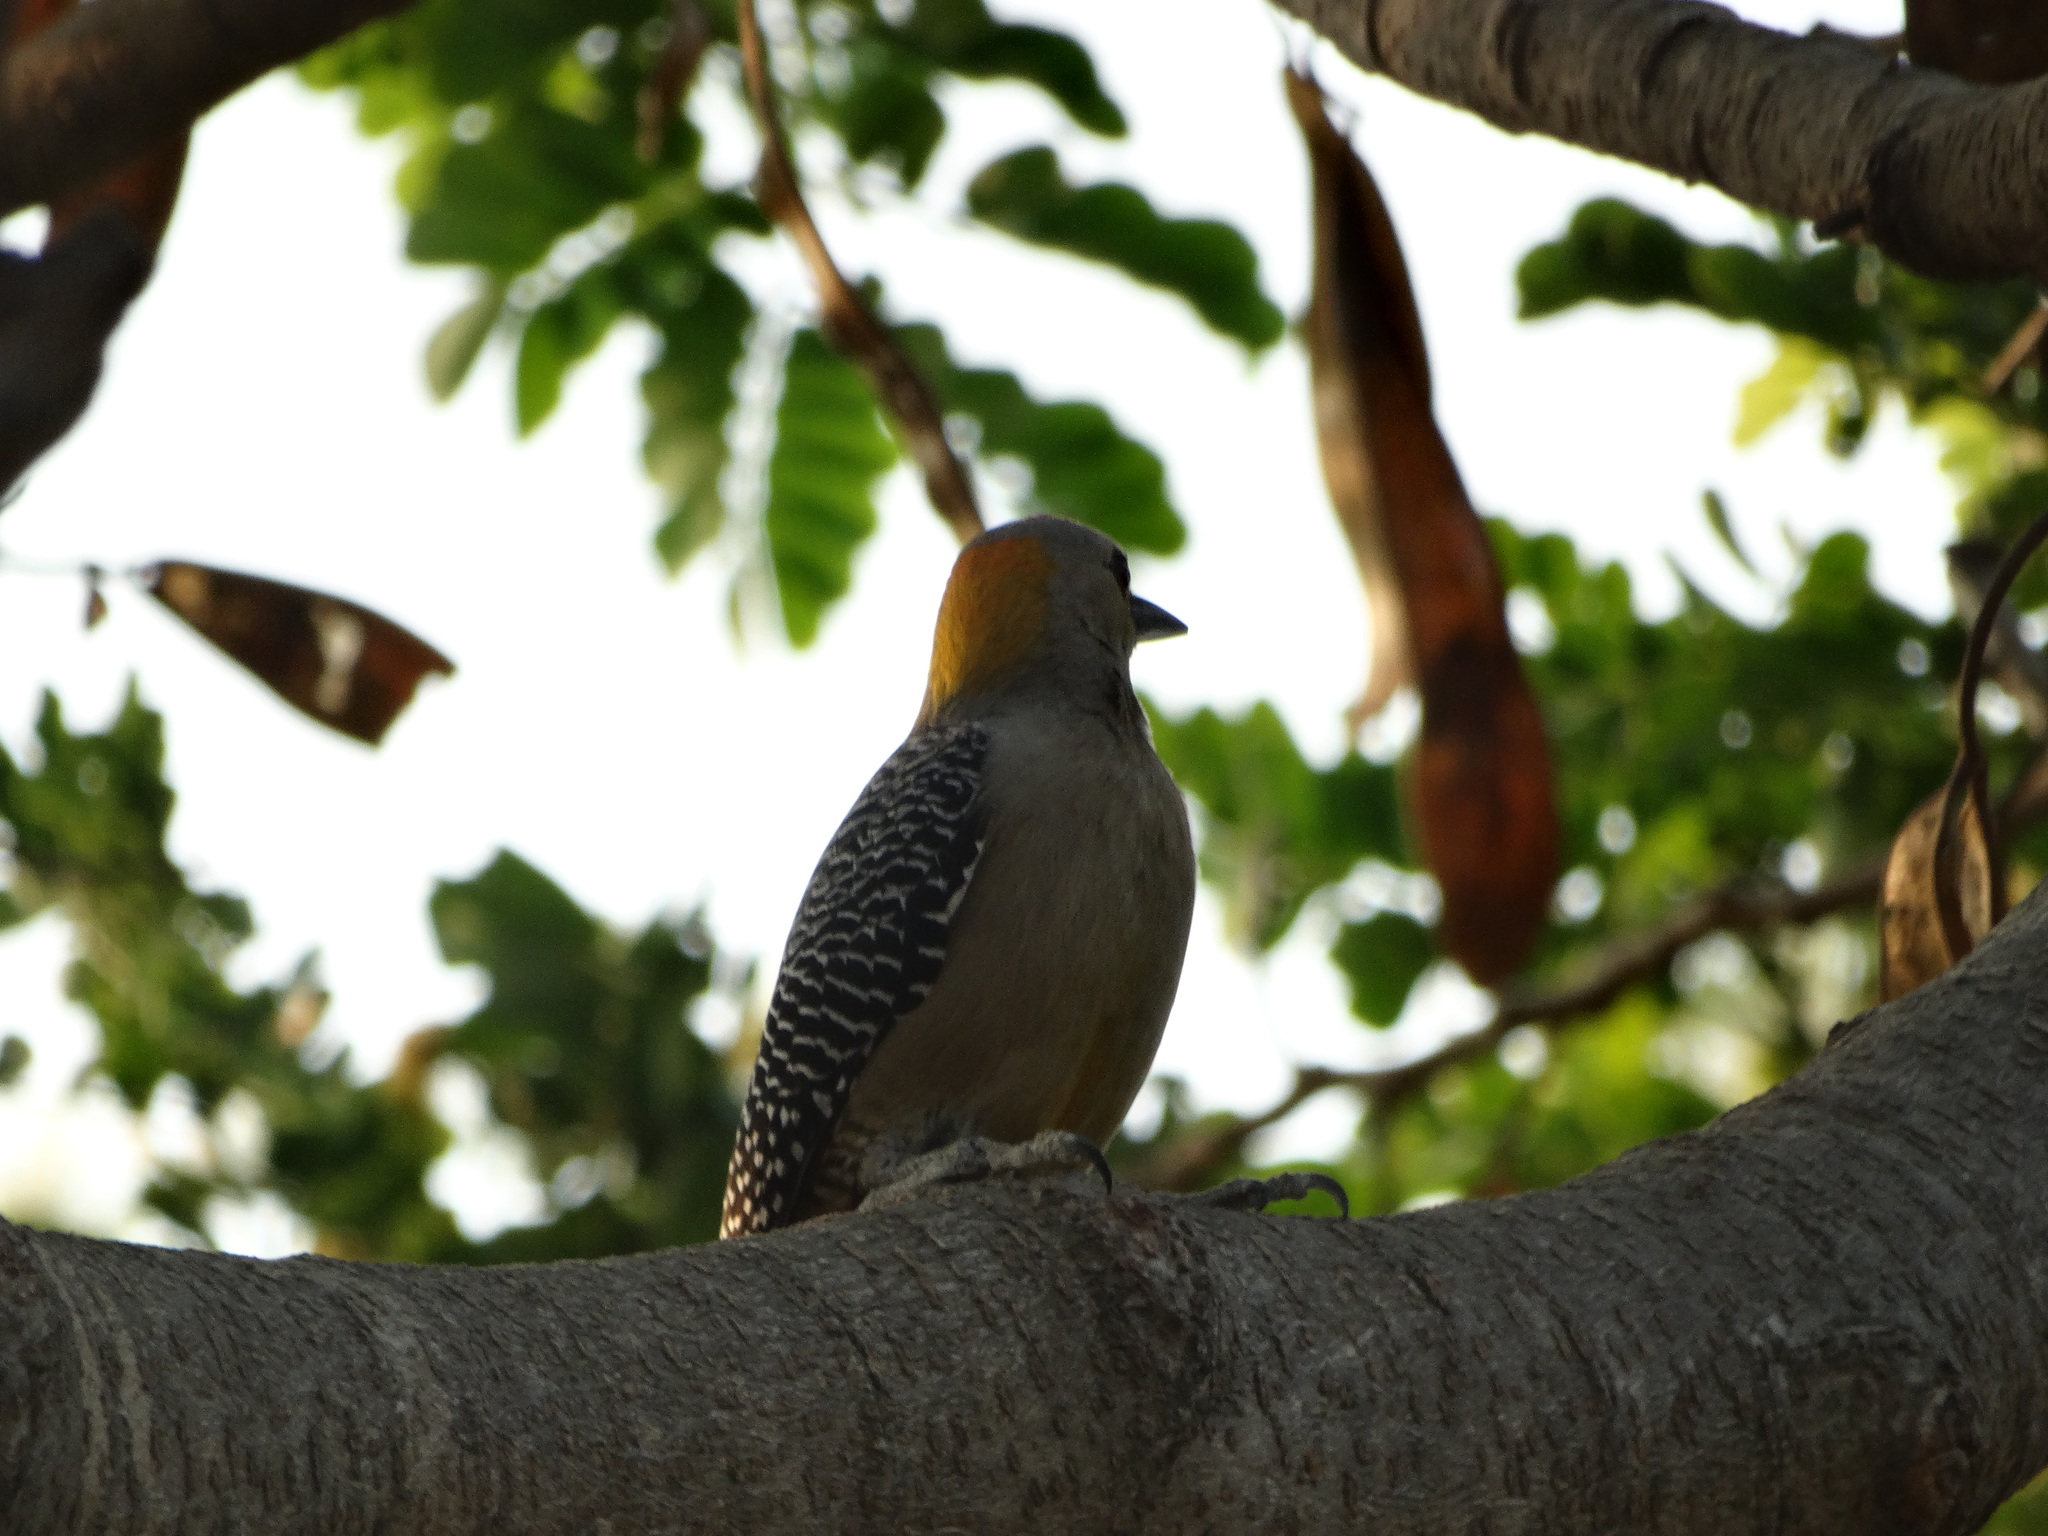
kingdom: Animalia
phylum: Chordata
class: Aves
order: Piciformes
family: Picidae
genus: Melanerpes
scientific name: Melanerpes aurifrons
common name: Golden-fronted woodpecker
